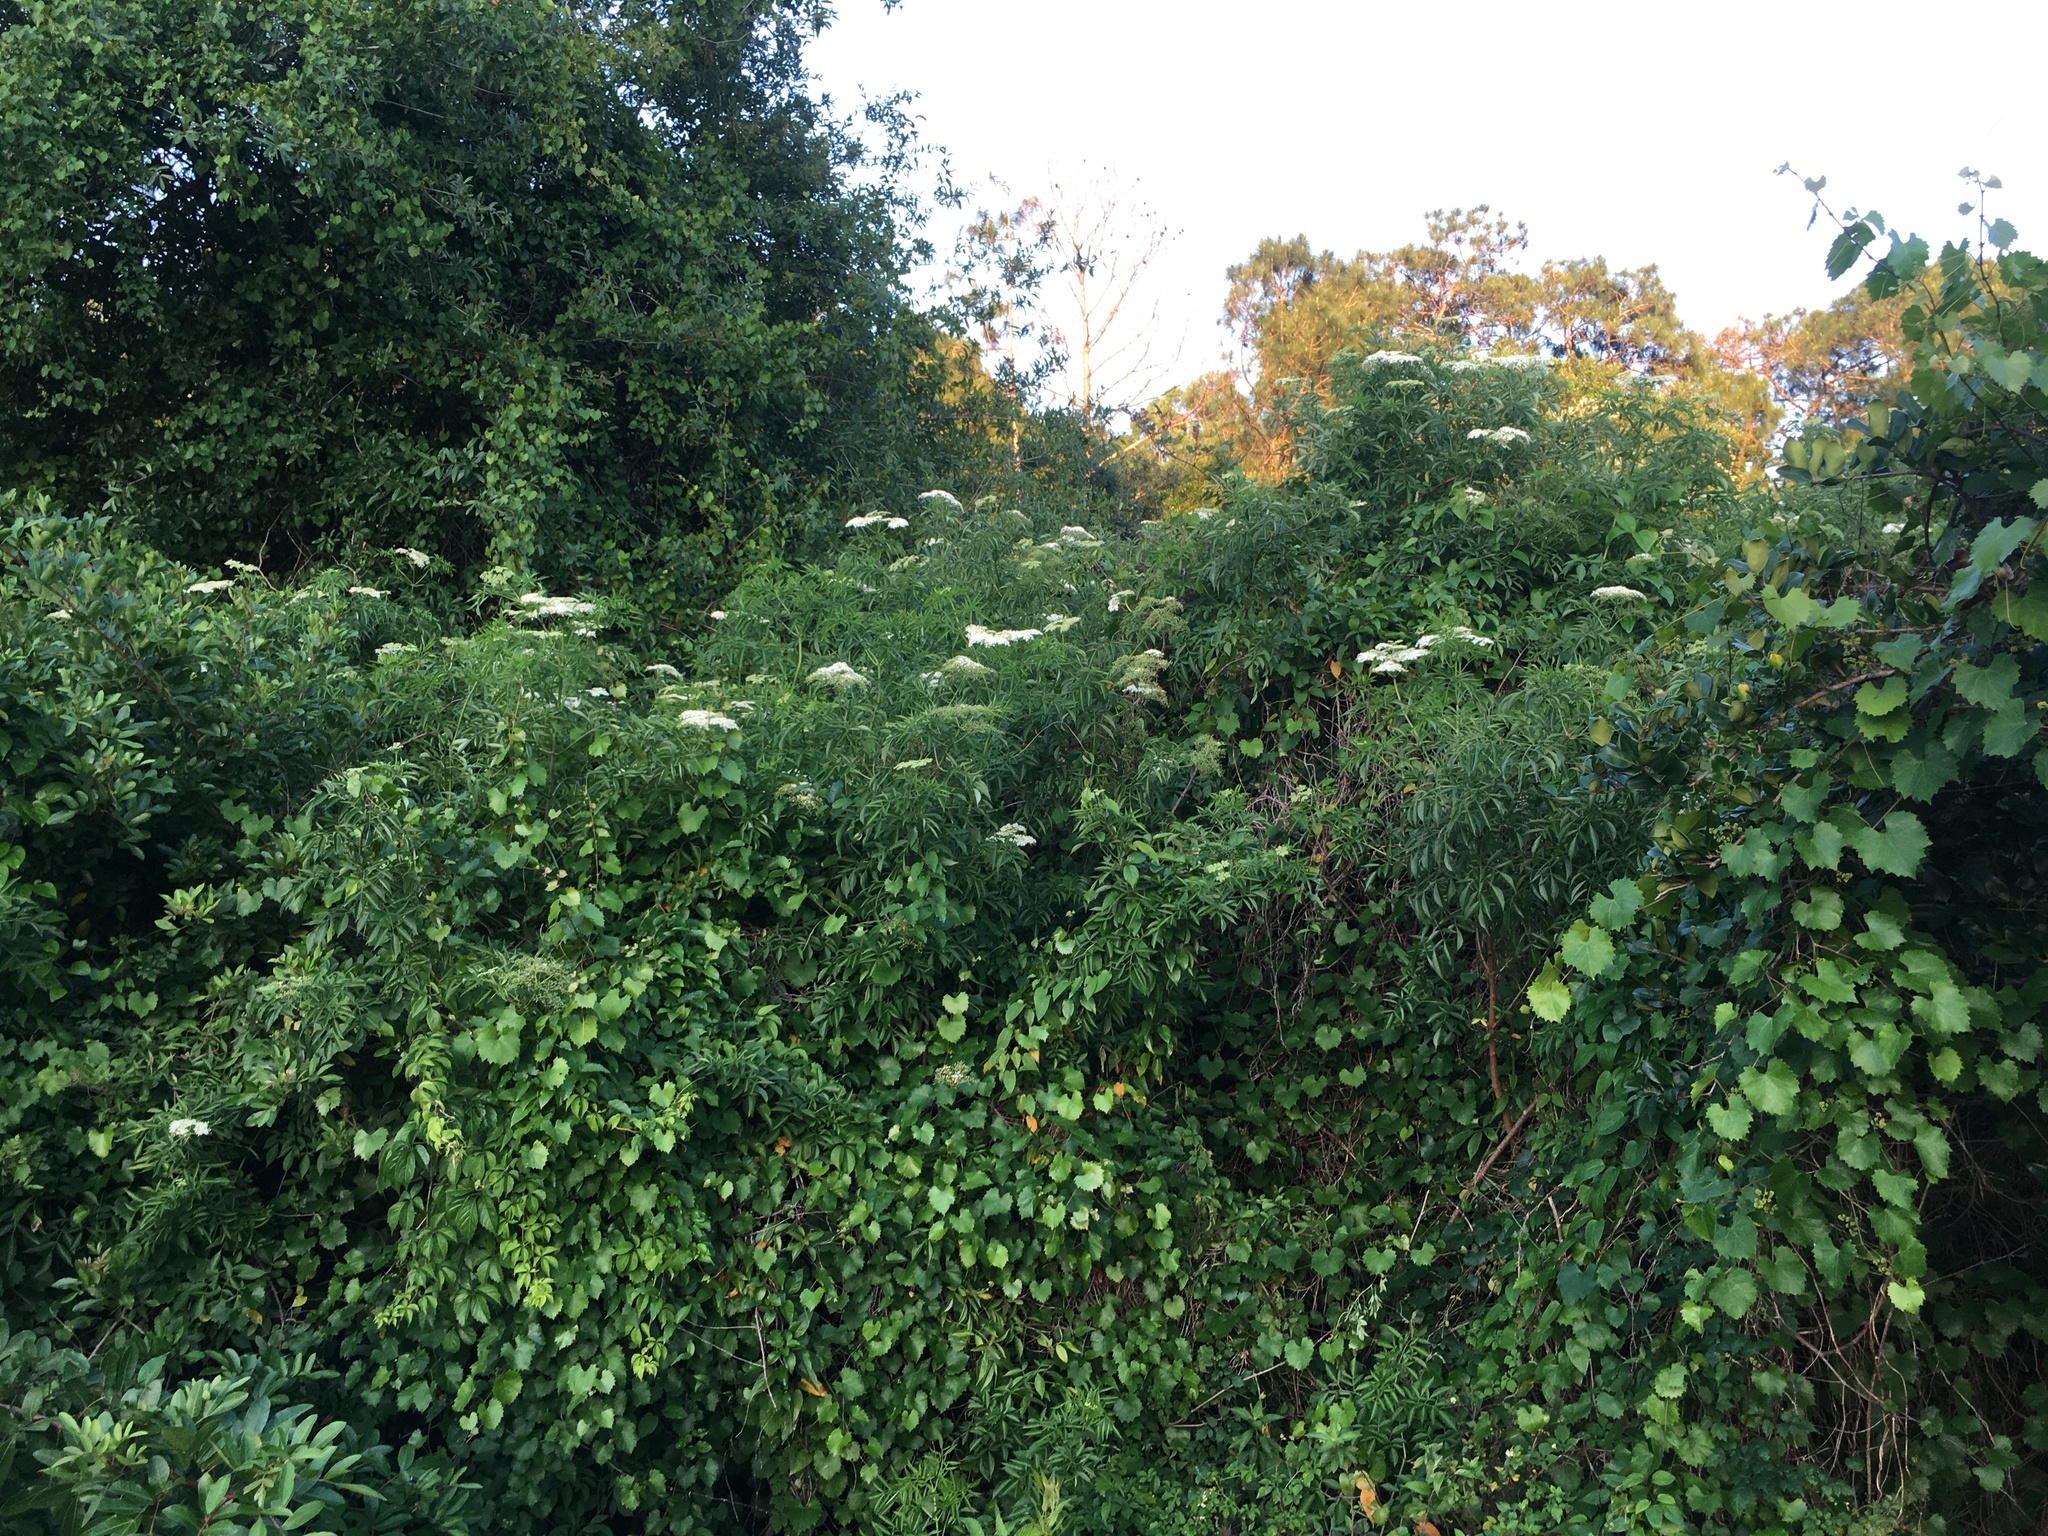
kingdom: Plantae
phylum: Tracheophyta
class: Magnoliopsida
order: Dipsacales
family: Viburnaceae
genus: Sambucus
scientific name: Sambucus canadensis
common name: American elder
